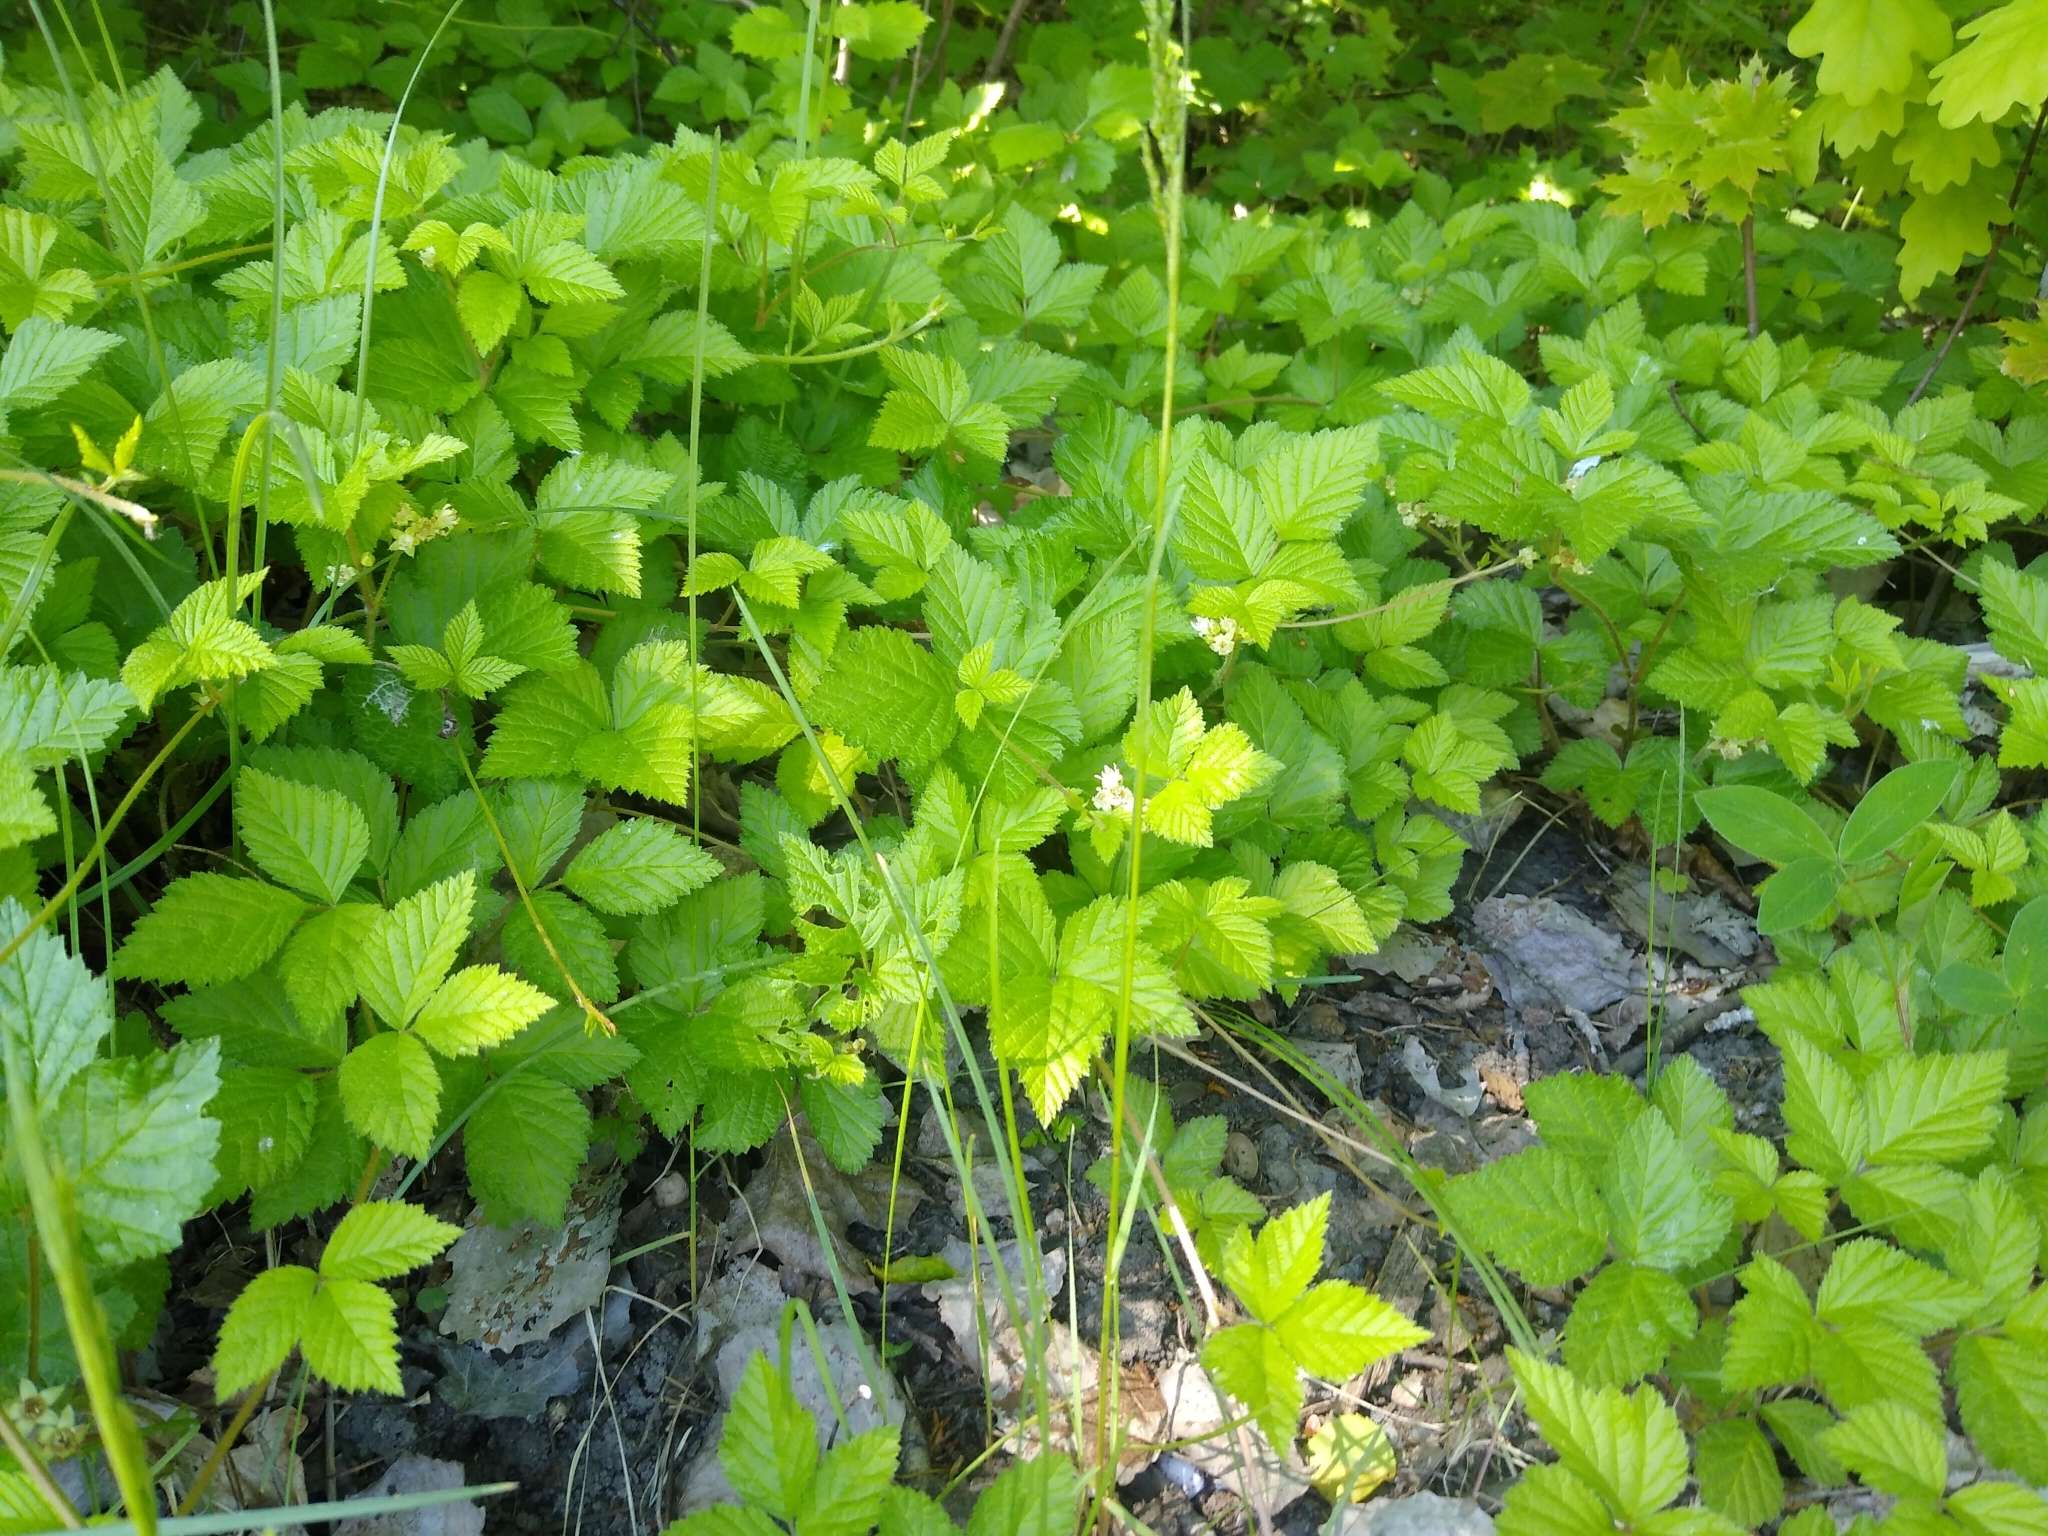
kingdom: Plantae
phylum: Tracheophyta
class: Magnoliopsida
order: Rosales
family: Rosaceae
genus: Rubus
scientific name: Rubus saxatilis
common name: Stone bramble
